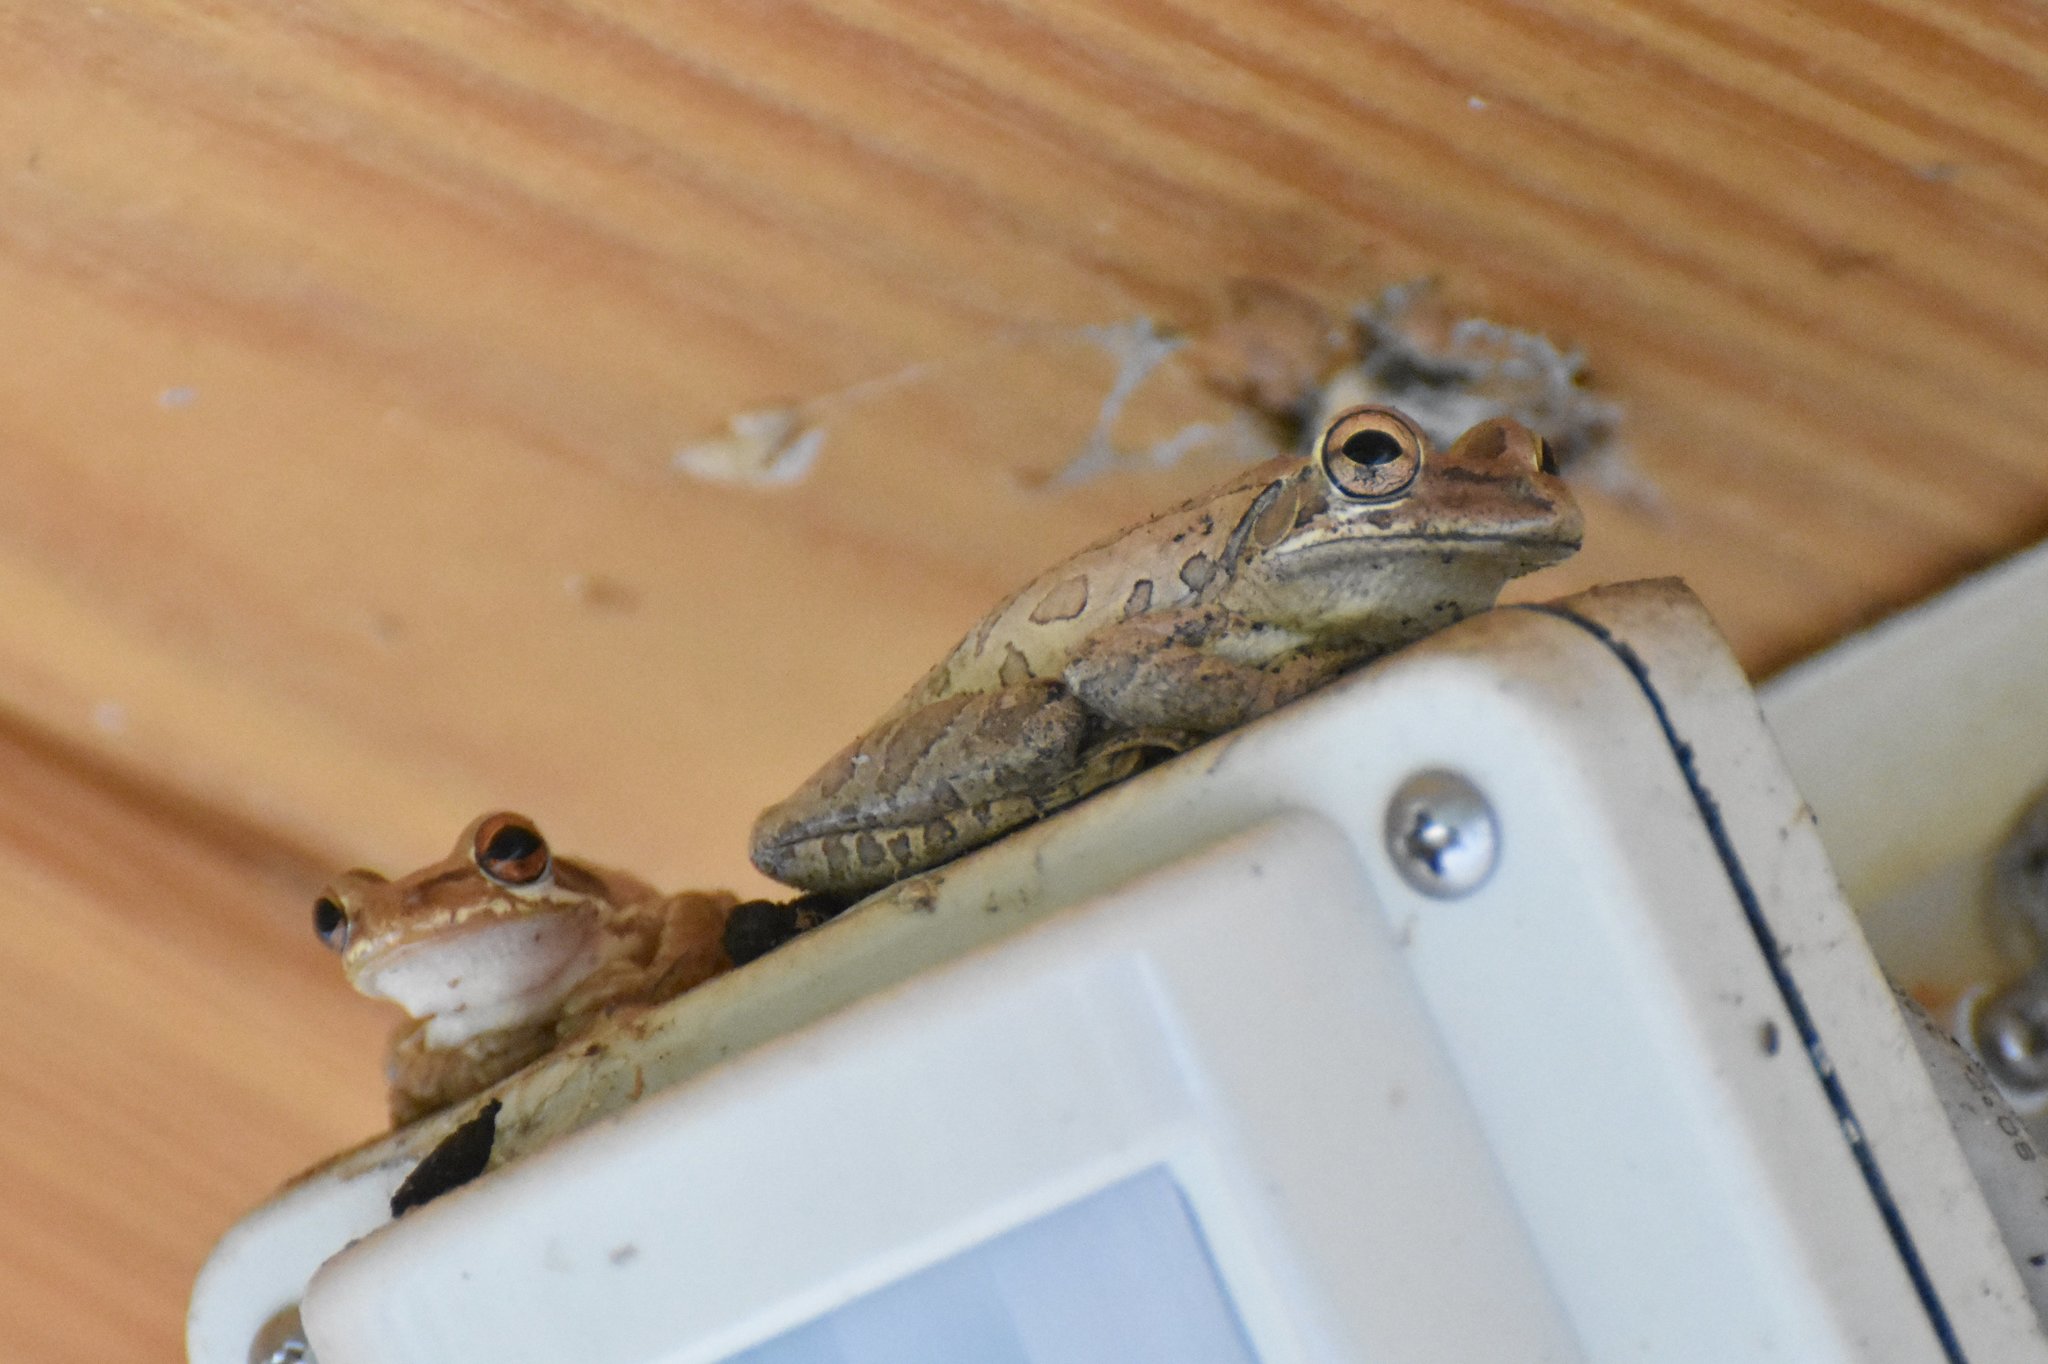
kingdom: Animalia
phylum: Chordata
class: Amphibia
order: Anura
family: Hylidae
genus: Osteopilus
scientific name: Osteopilus septentrionalis
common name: Cuban treefrog
